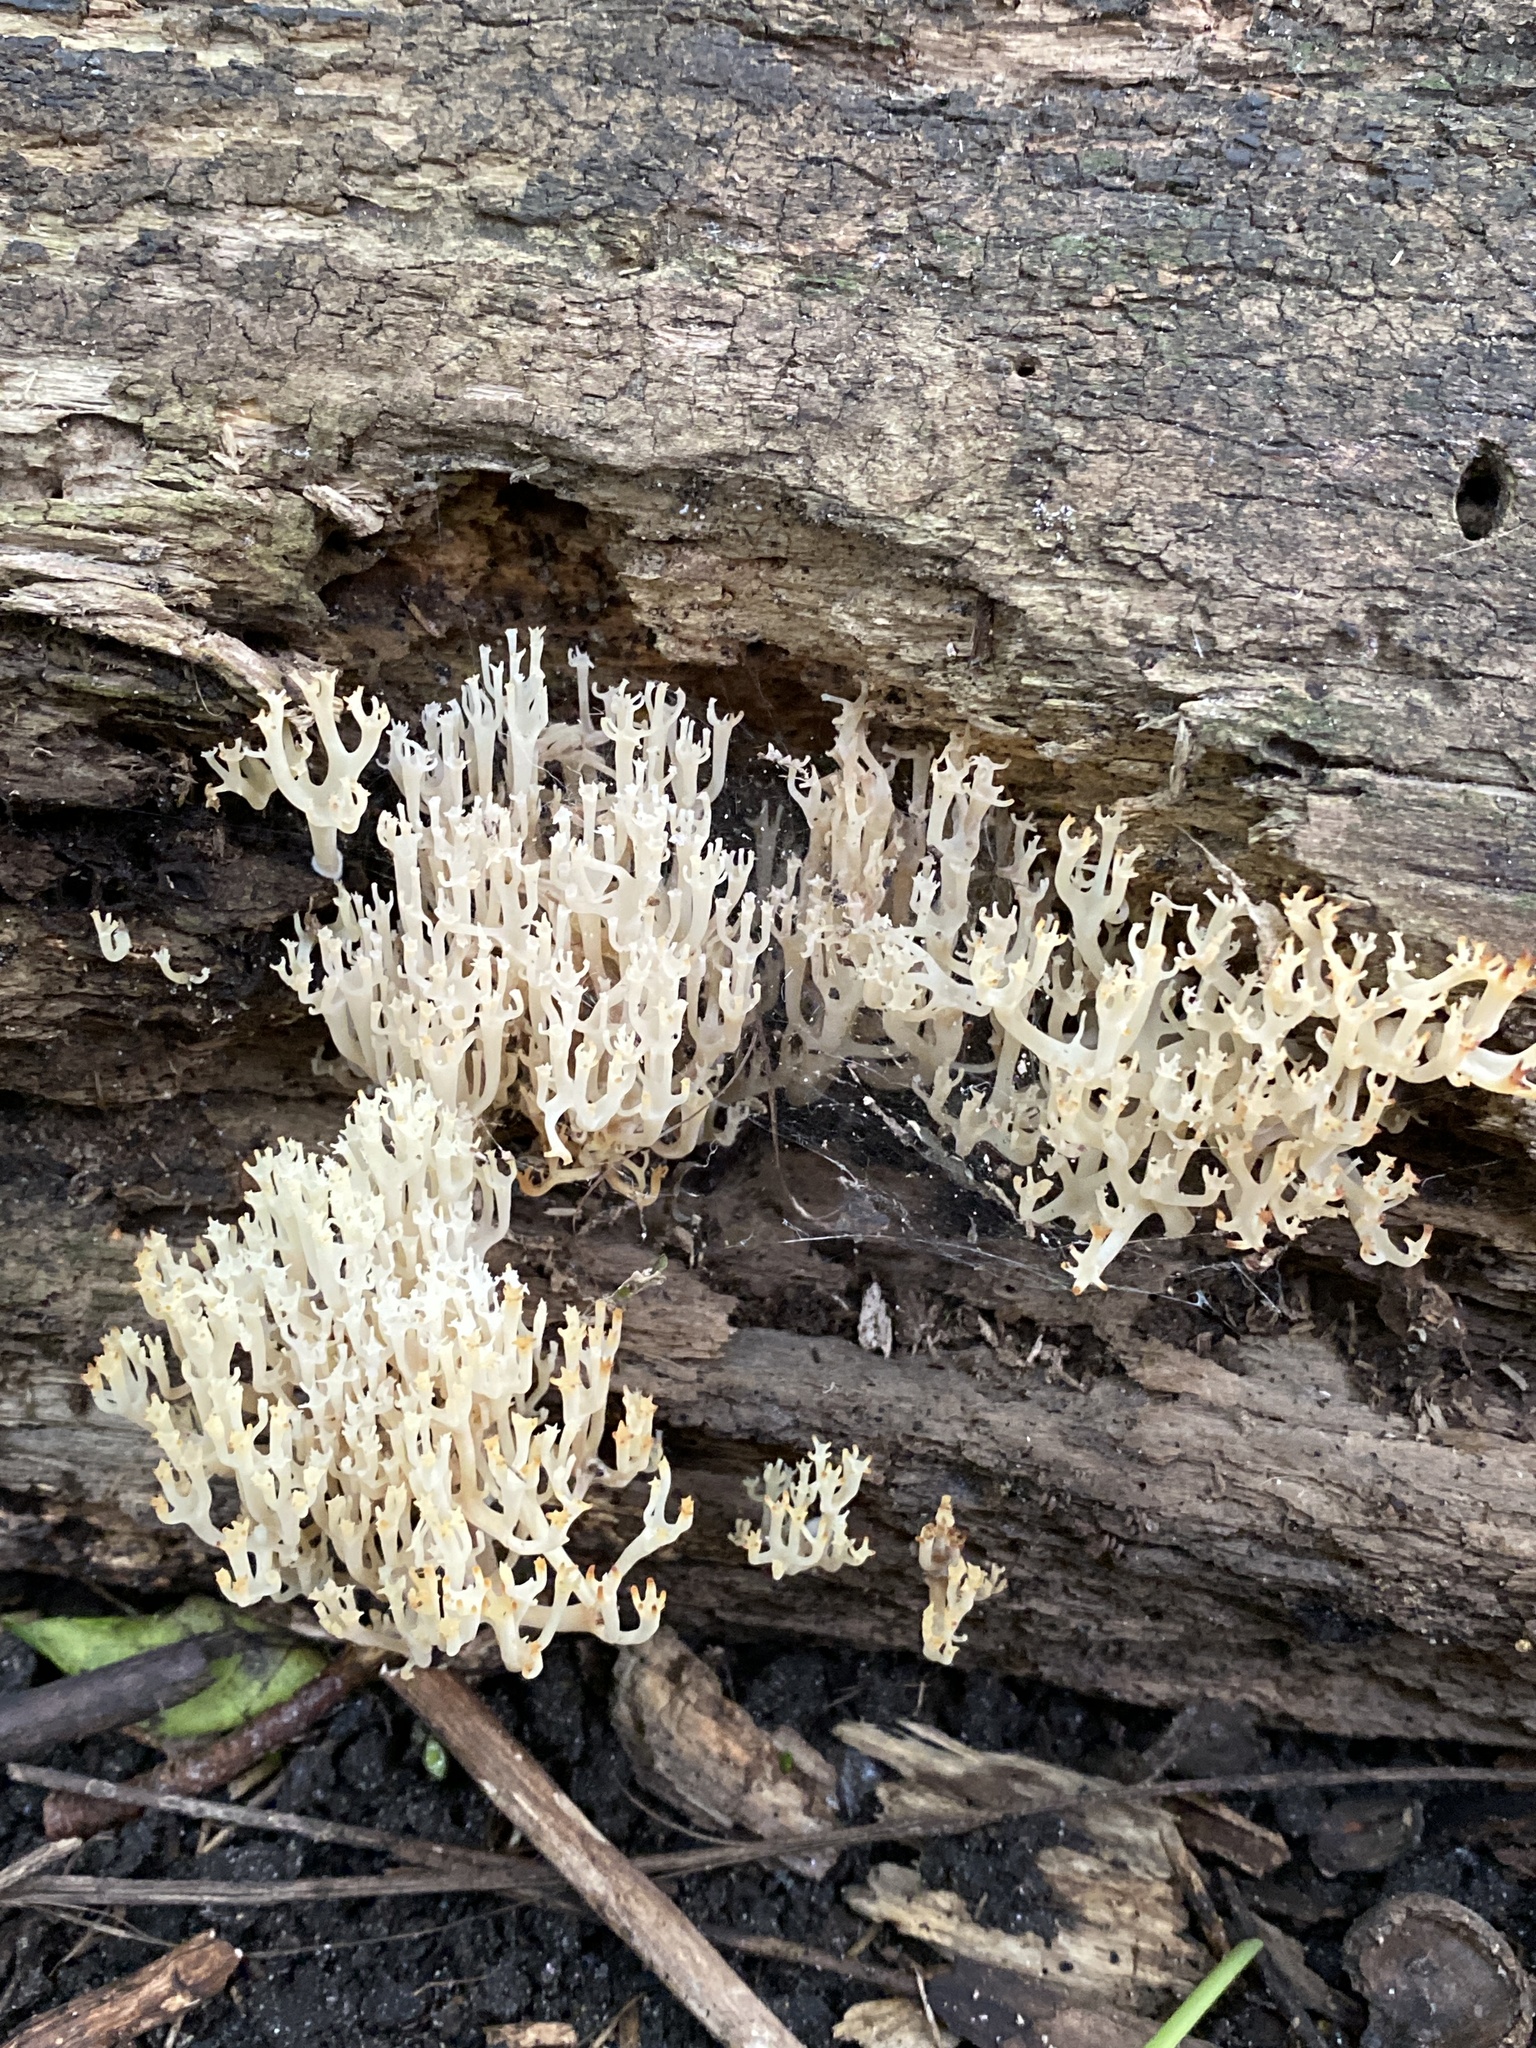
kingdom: Fungi
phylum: Basidiomycota
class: Agaricomycetes
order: Russulales
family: Auriscalpiaceae
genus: Artomyces
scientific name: Artomyces pyxidatus
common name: Crown-tipped coral fungus
